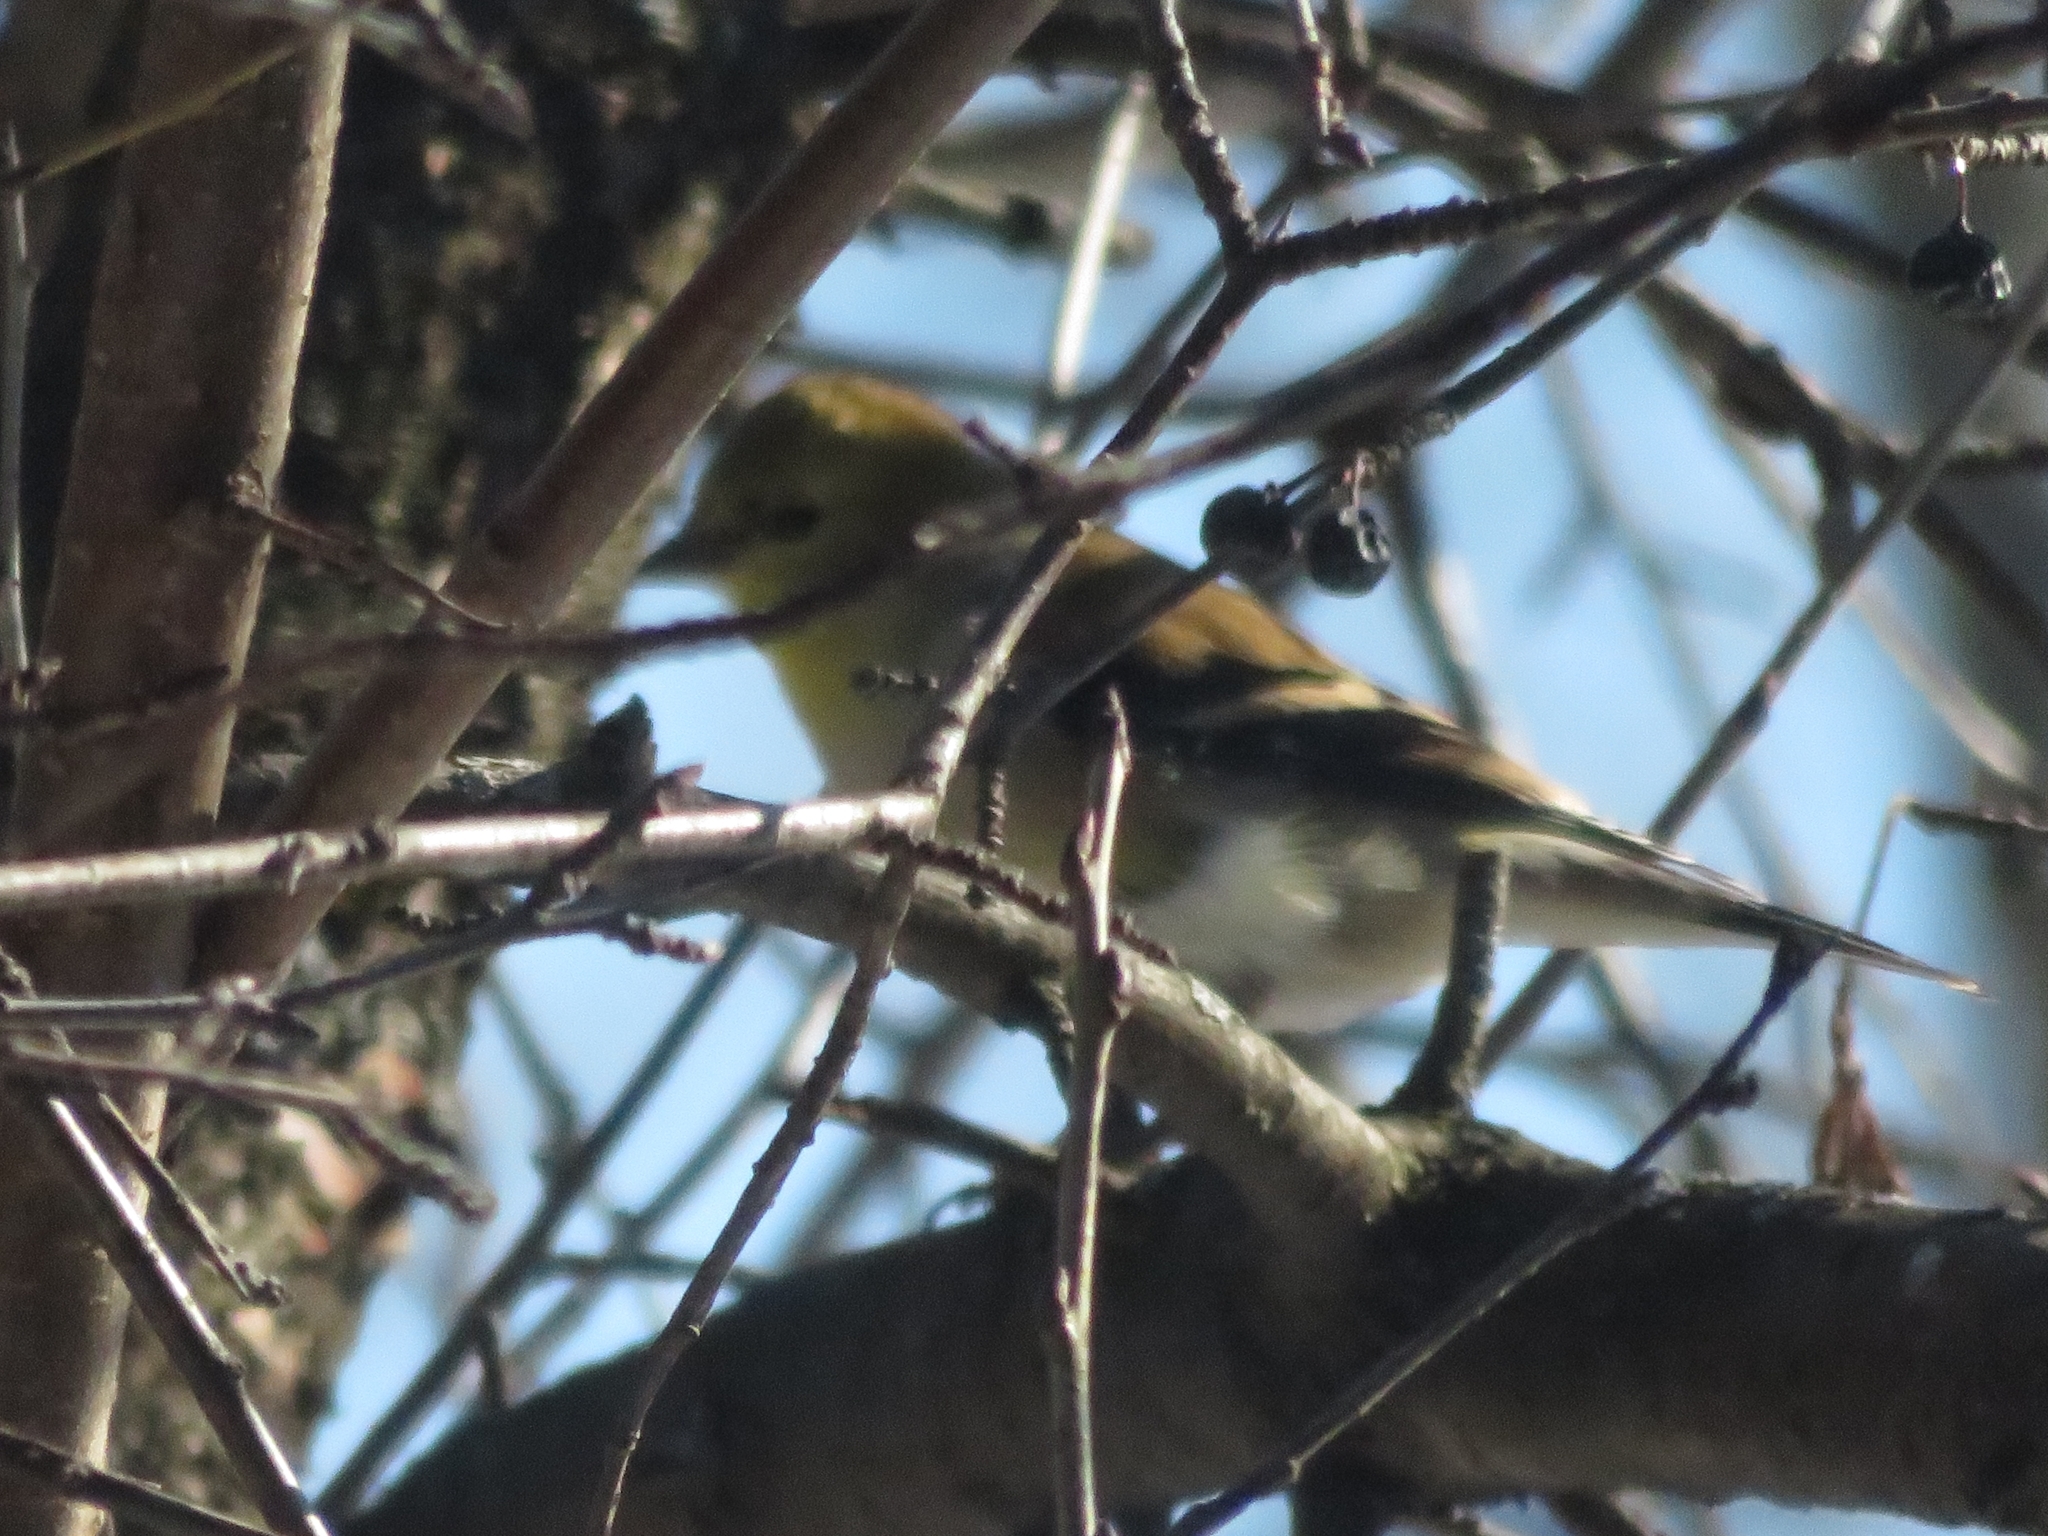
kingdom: Animalia
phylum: Chordata
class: Aves
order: Passeriformes
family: Fringillidae
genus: Spinus
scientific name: Spinus tristis
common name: American goldfinch
